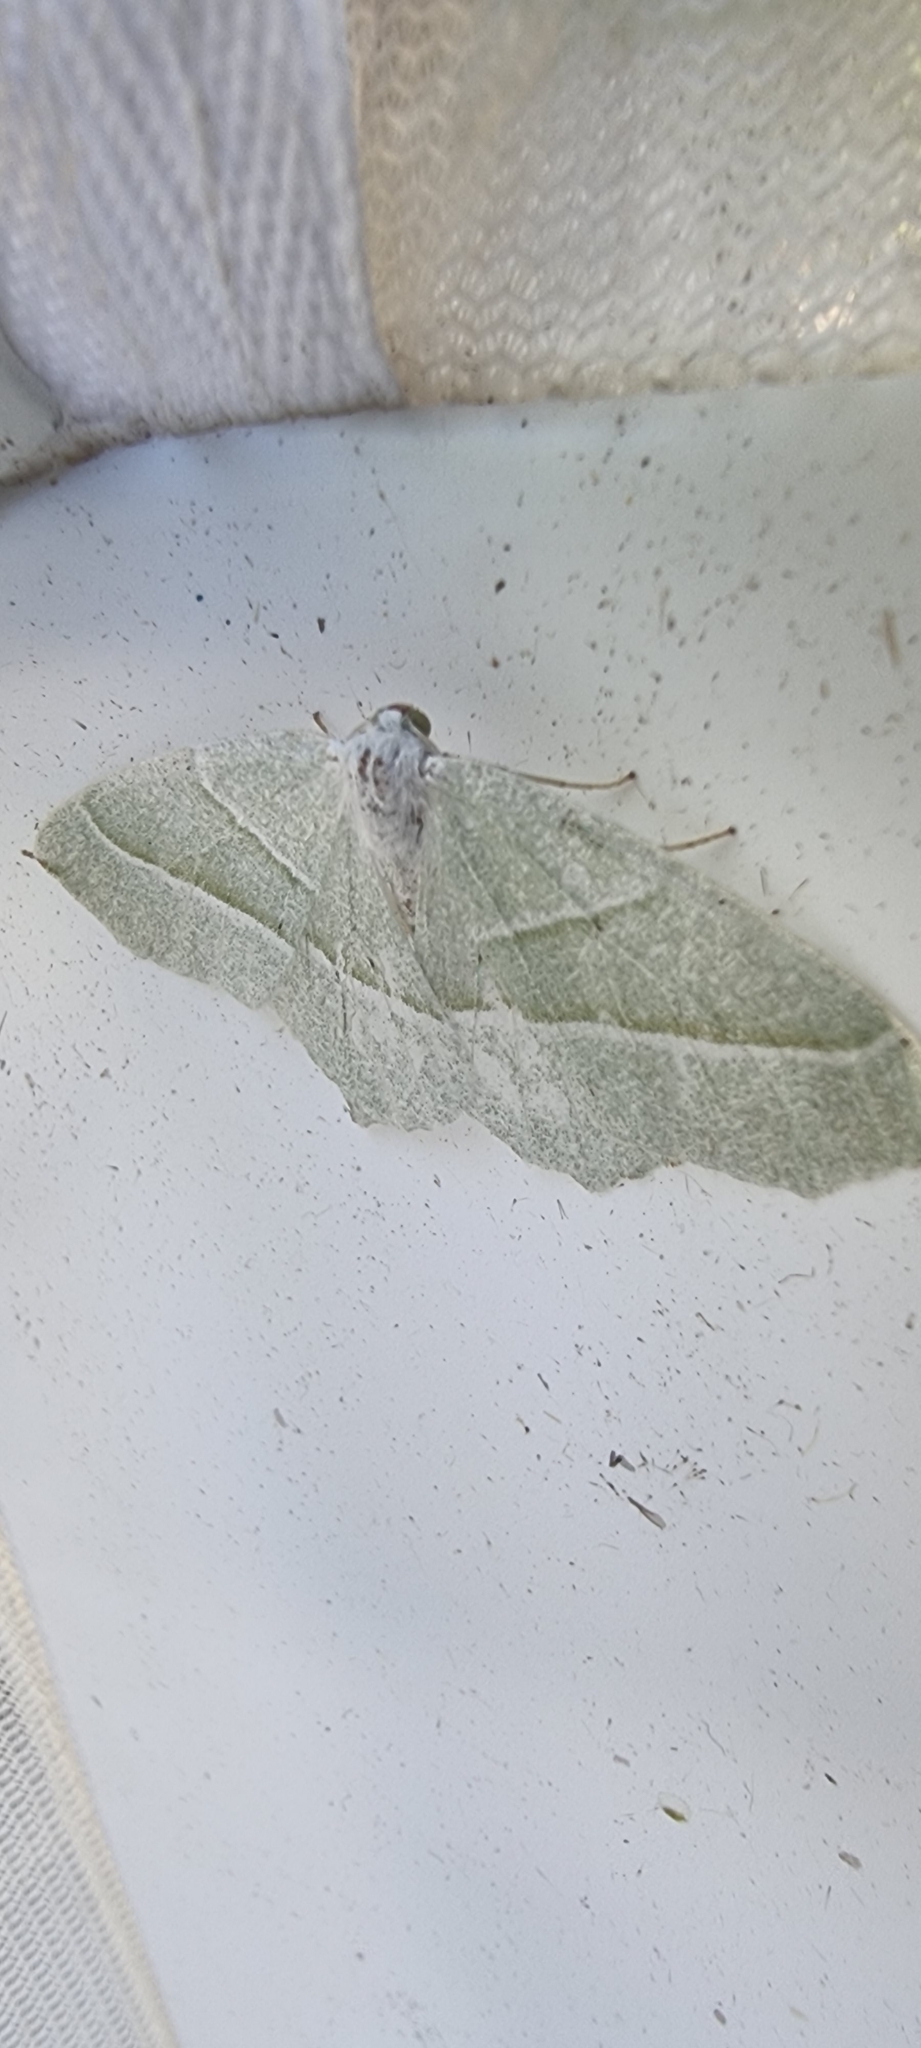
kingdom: Animalia
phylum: Arthropoda
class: Insecta
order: Lepidoptera
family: Geometridae
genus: Campaea
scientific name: Campaea margaritaria
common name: Light emerald
